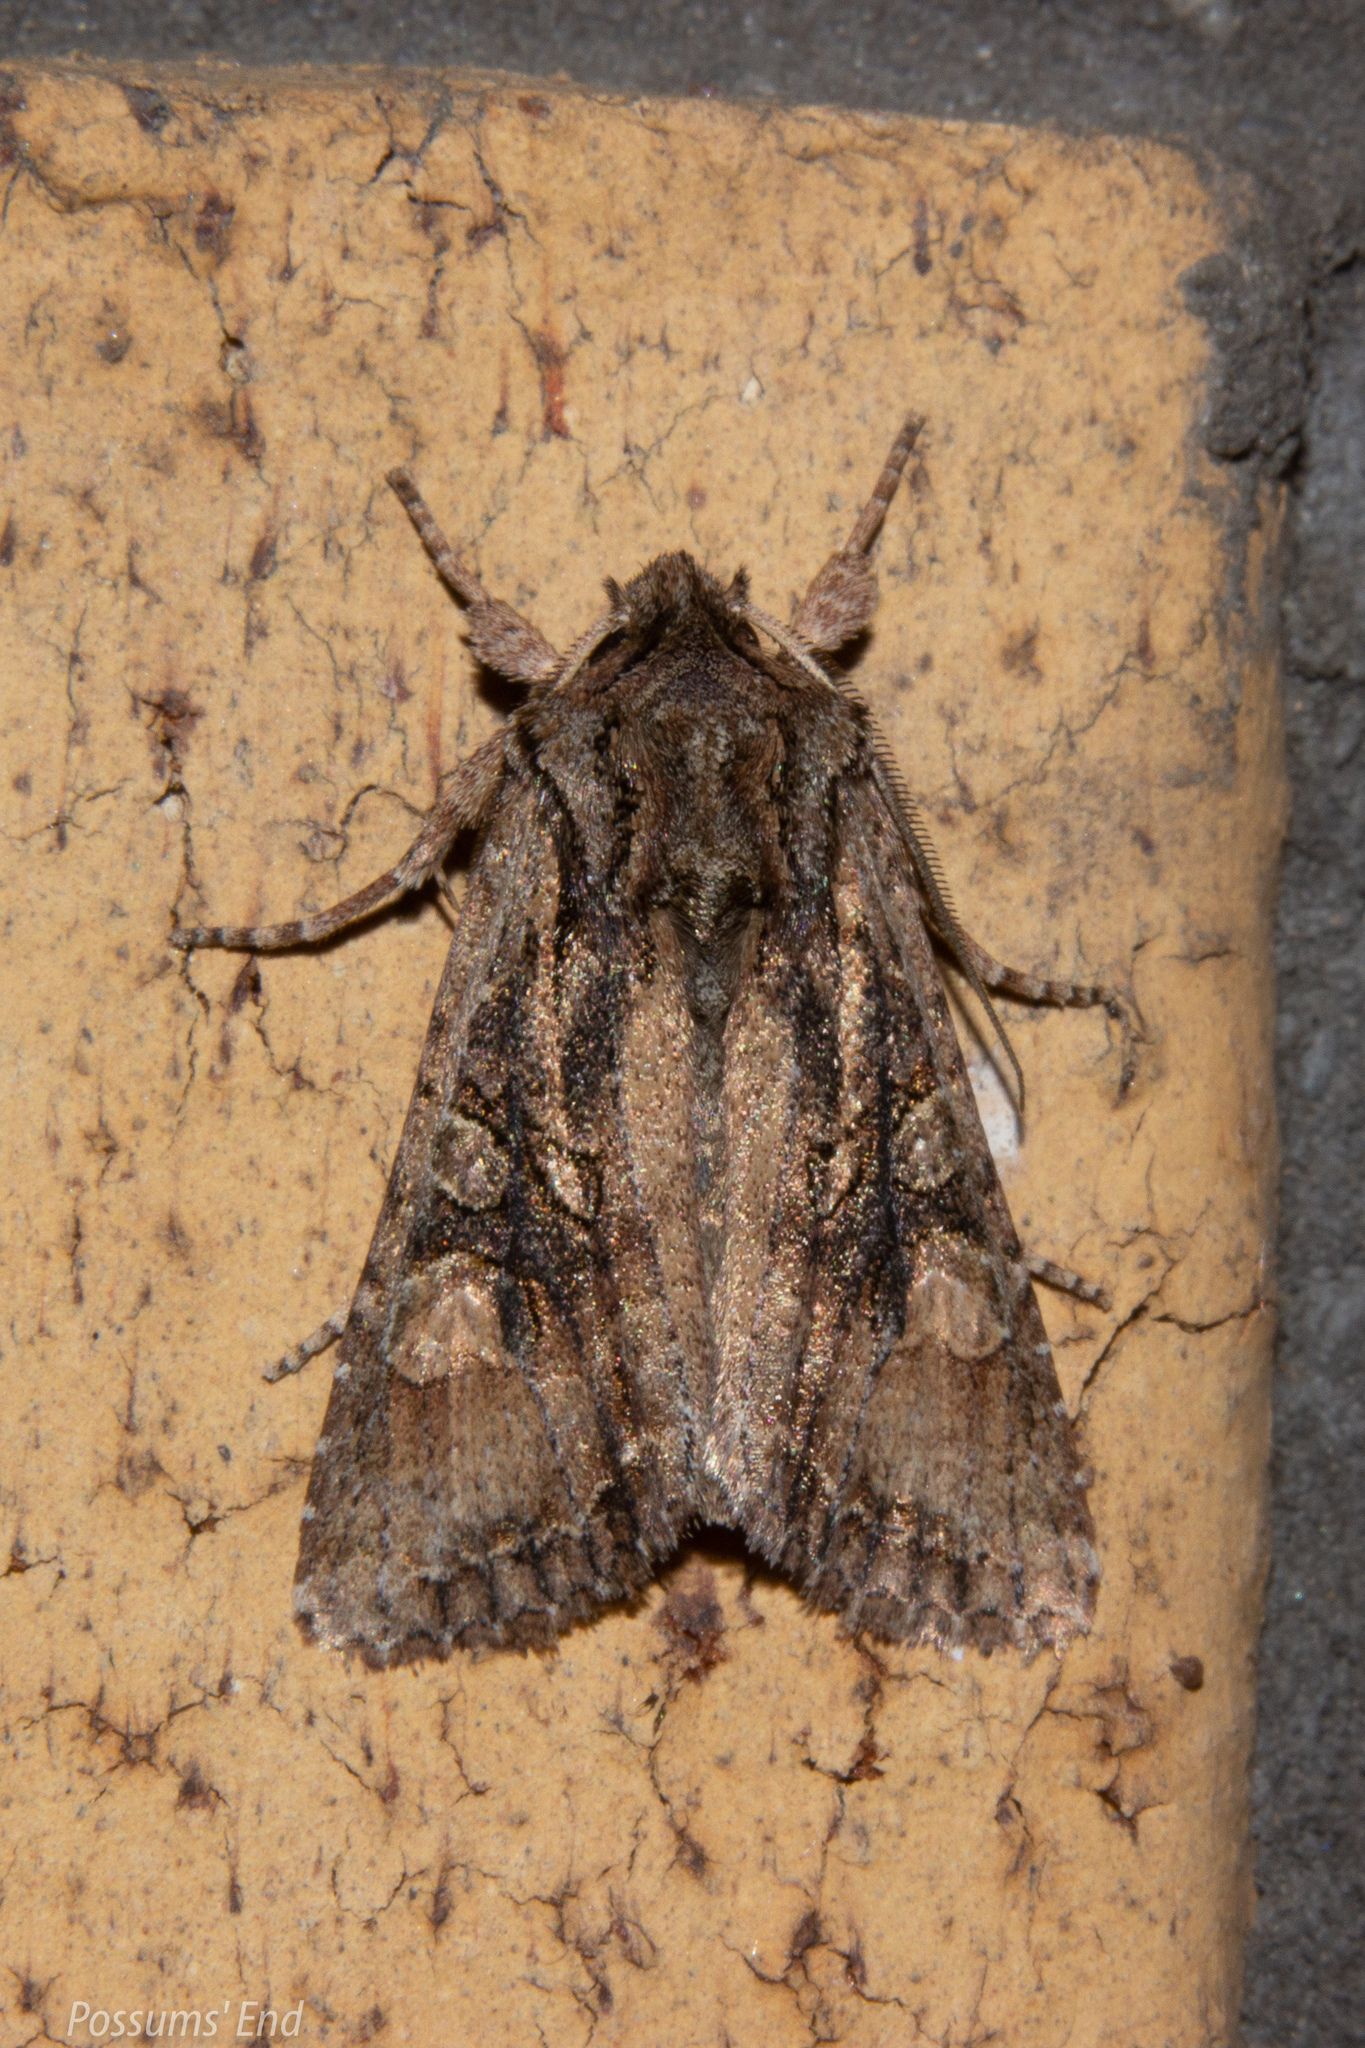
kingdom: Animalia
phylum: Arthropoda
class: Insecta
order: Lepidoptera
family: Noctuidae
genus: Ichneutica
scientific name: Ichneutica mutans
